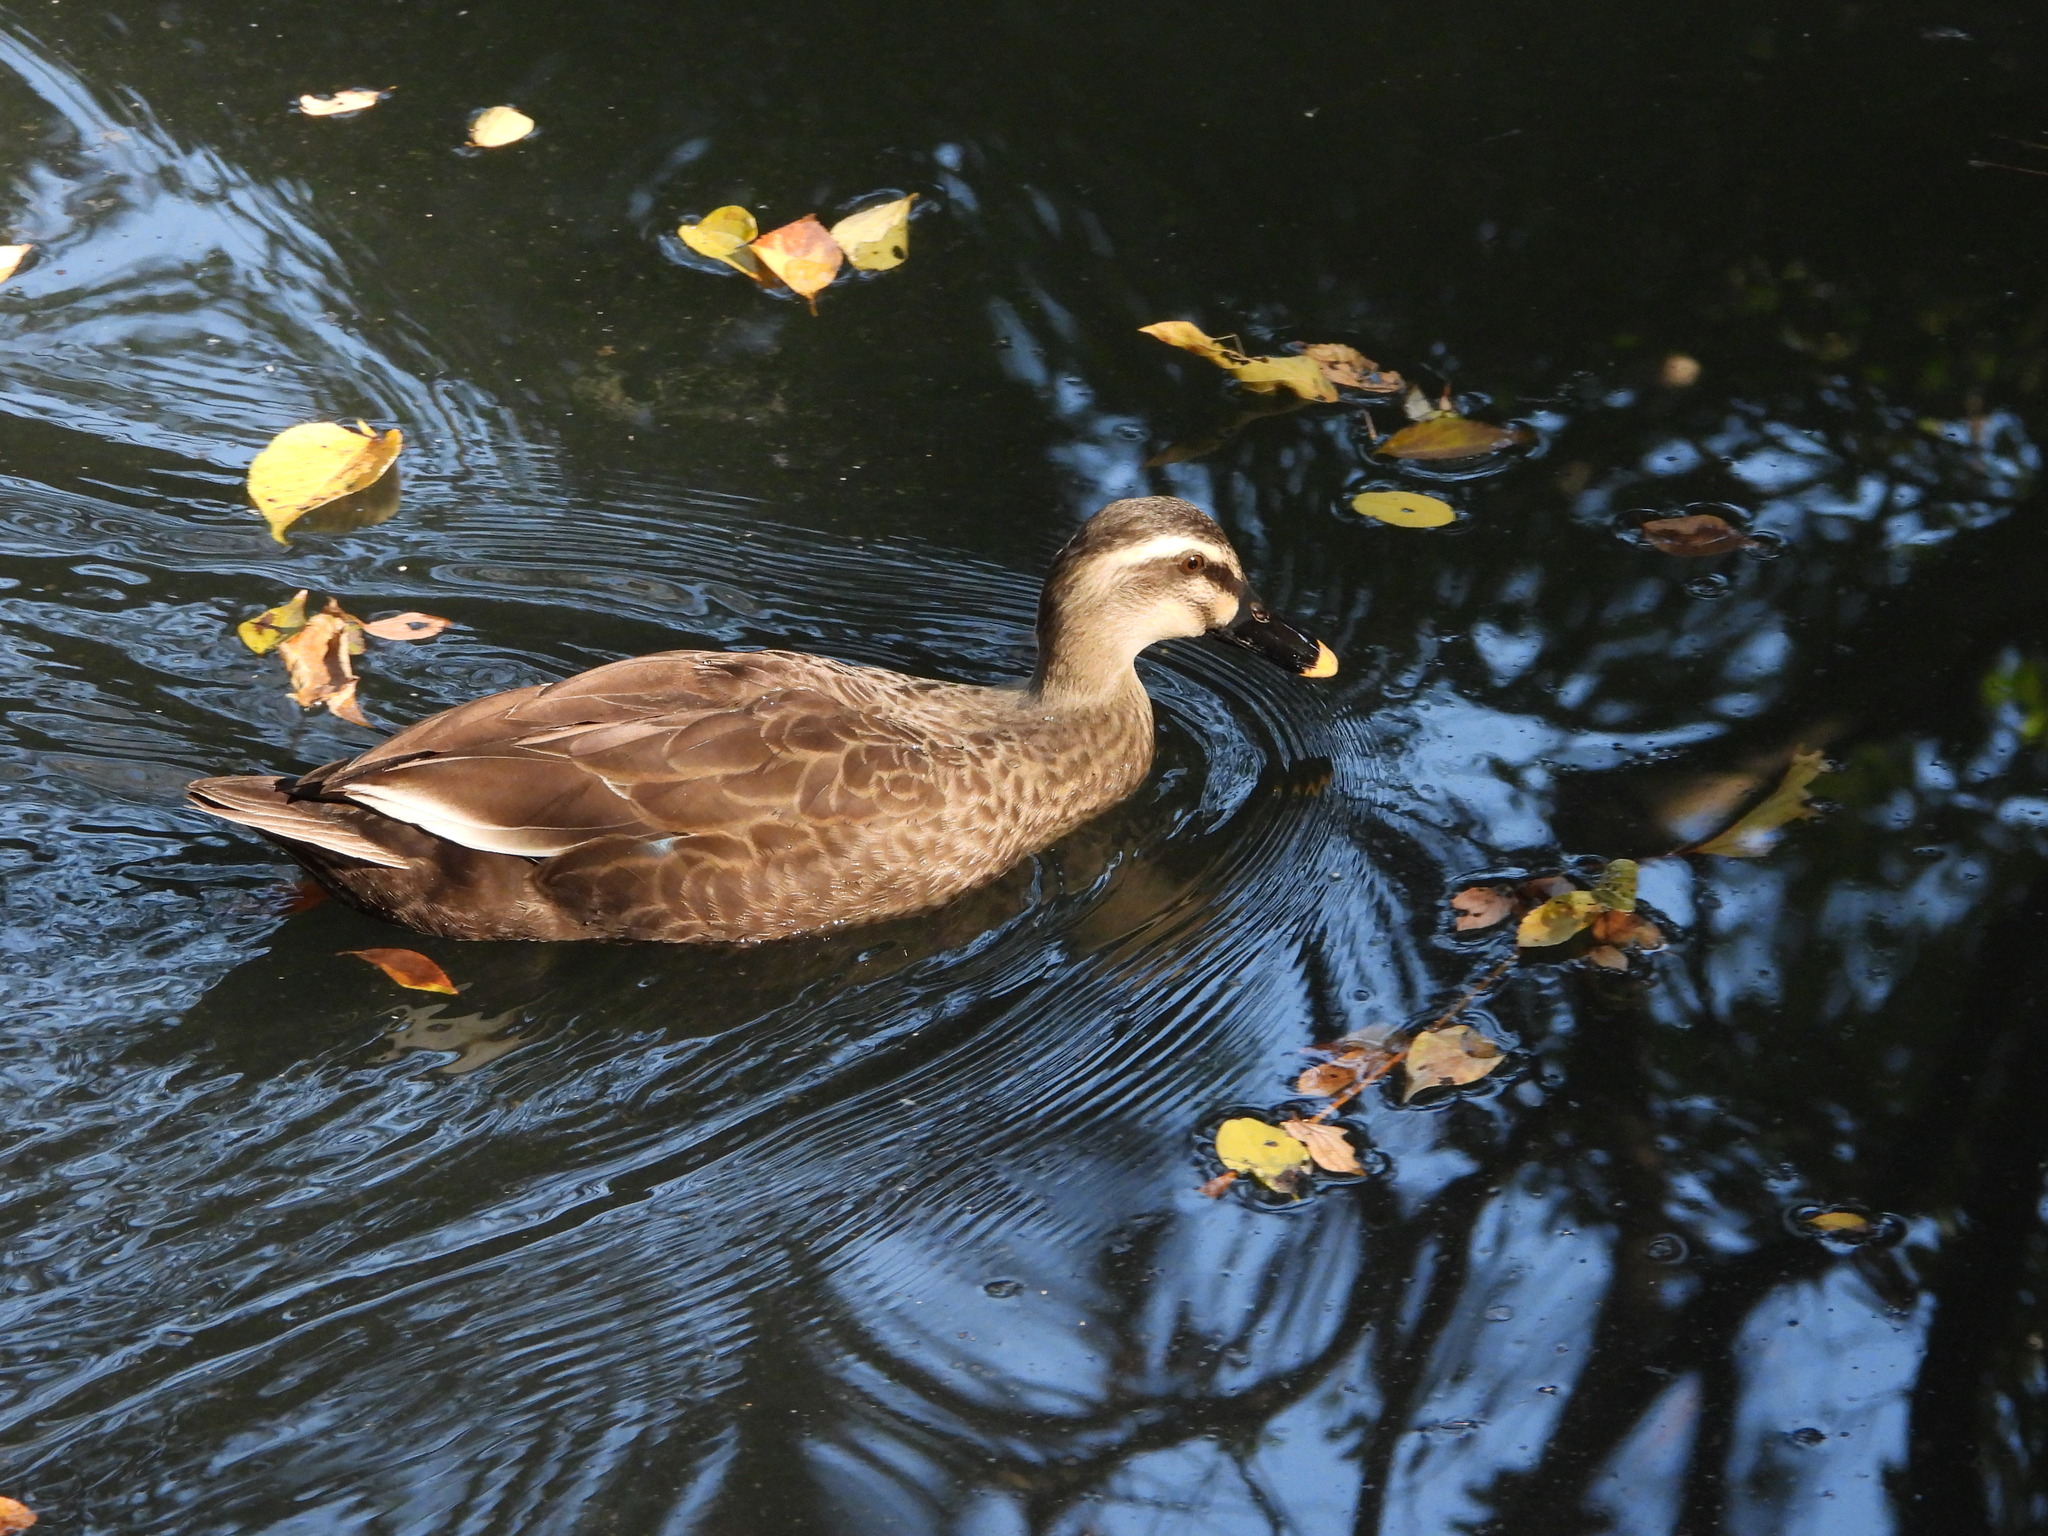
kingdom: Animalia
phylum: Chordata
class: Aves
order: Anseriformes
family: Anatidae
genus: Anas
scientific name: Anas zonorhyncha
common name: Eastern spot-billed duck
